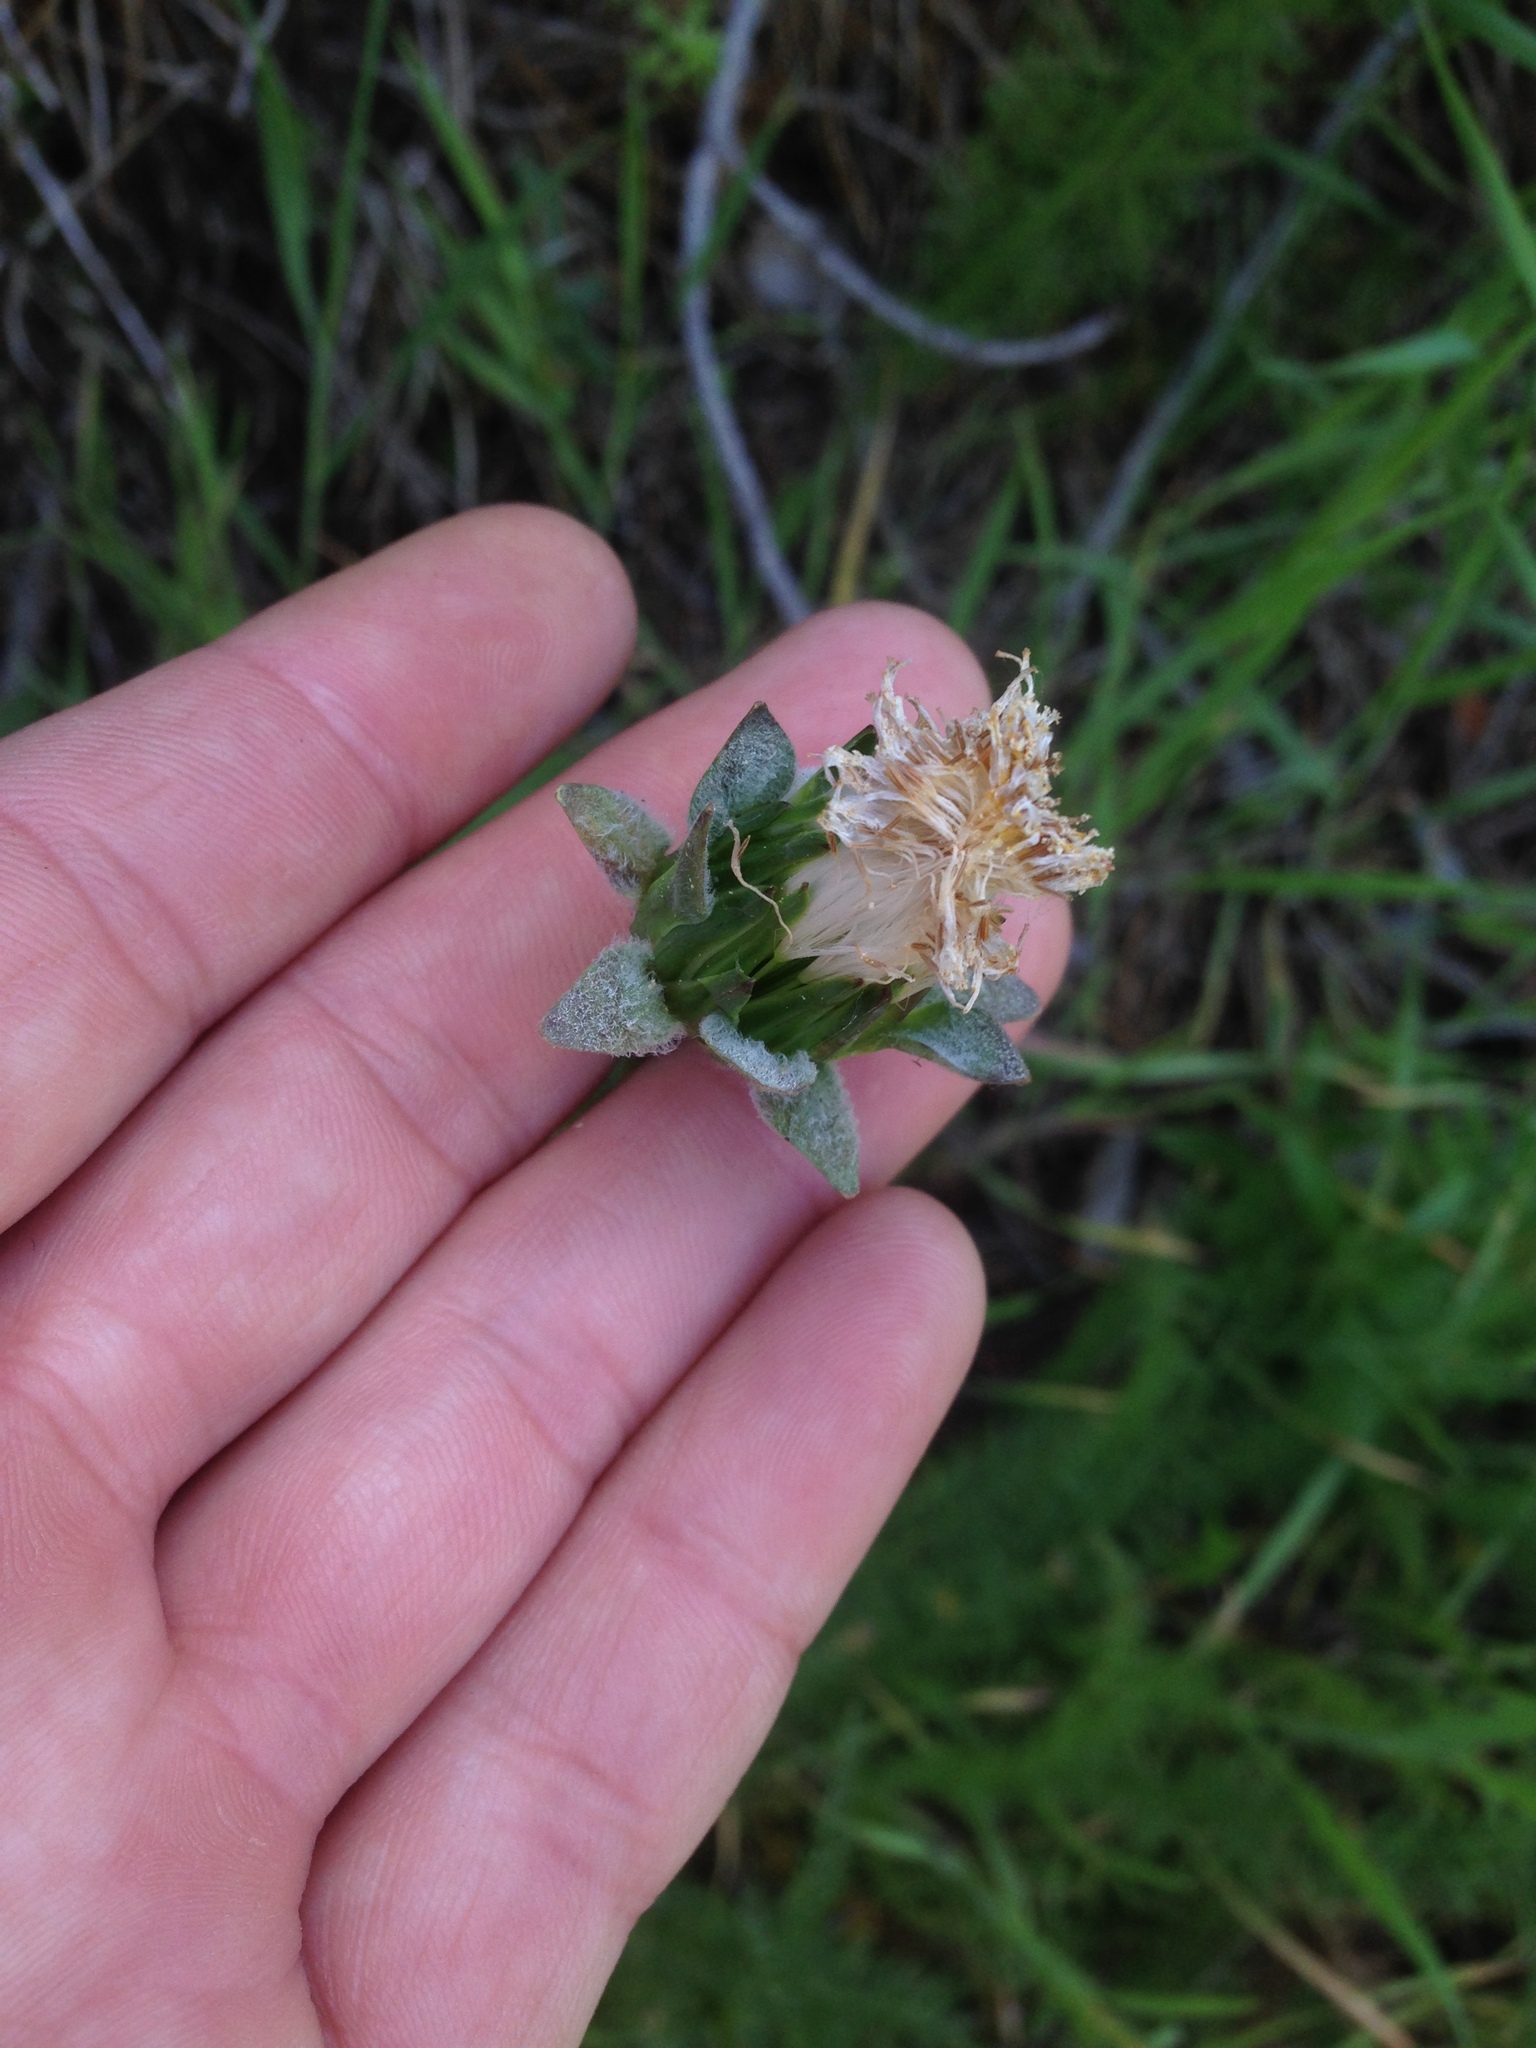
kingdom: Plantae
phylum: Tracheophyta
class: Magnoliopsida
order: Asterales
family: Asteraceae
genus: Agoseris
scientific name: Agoseris grandiflora
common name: Grassland agoseris
